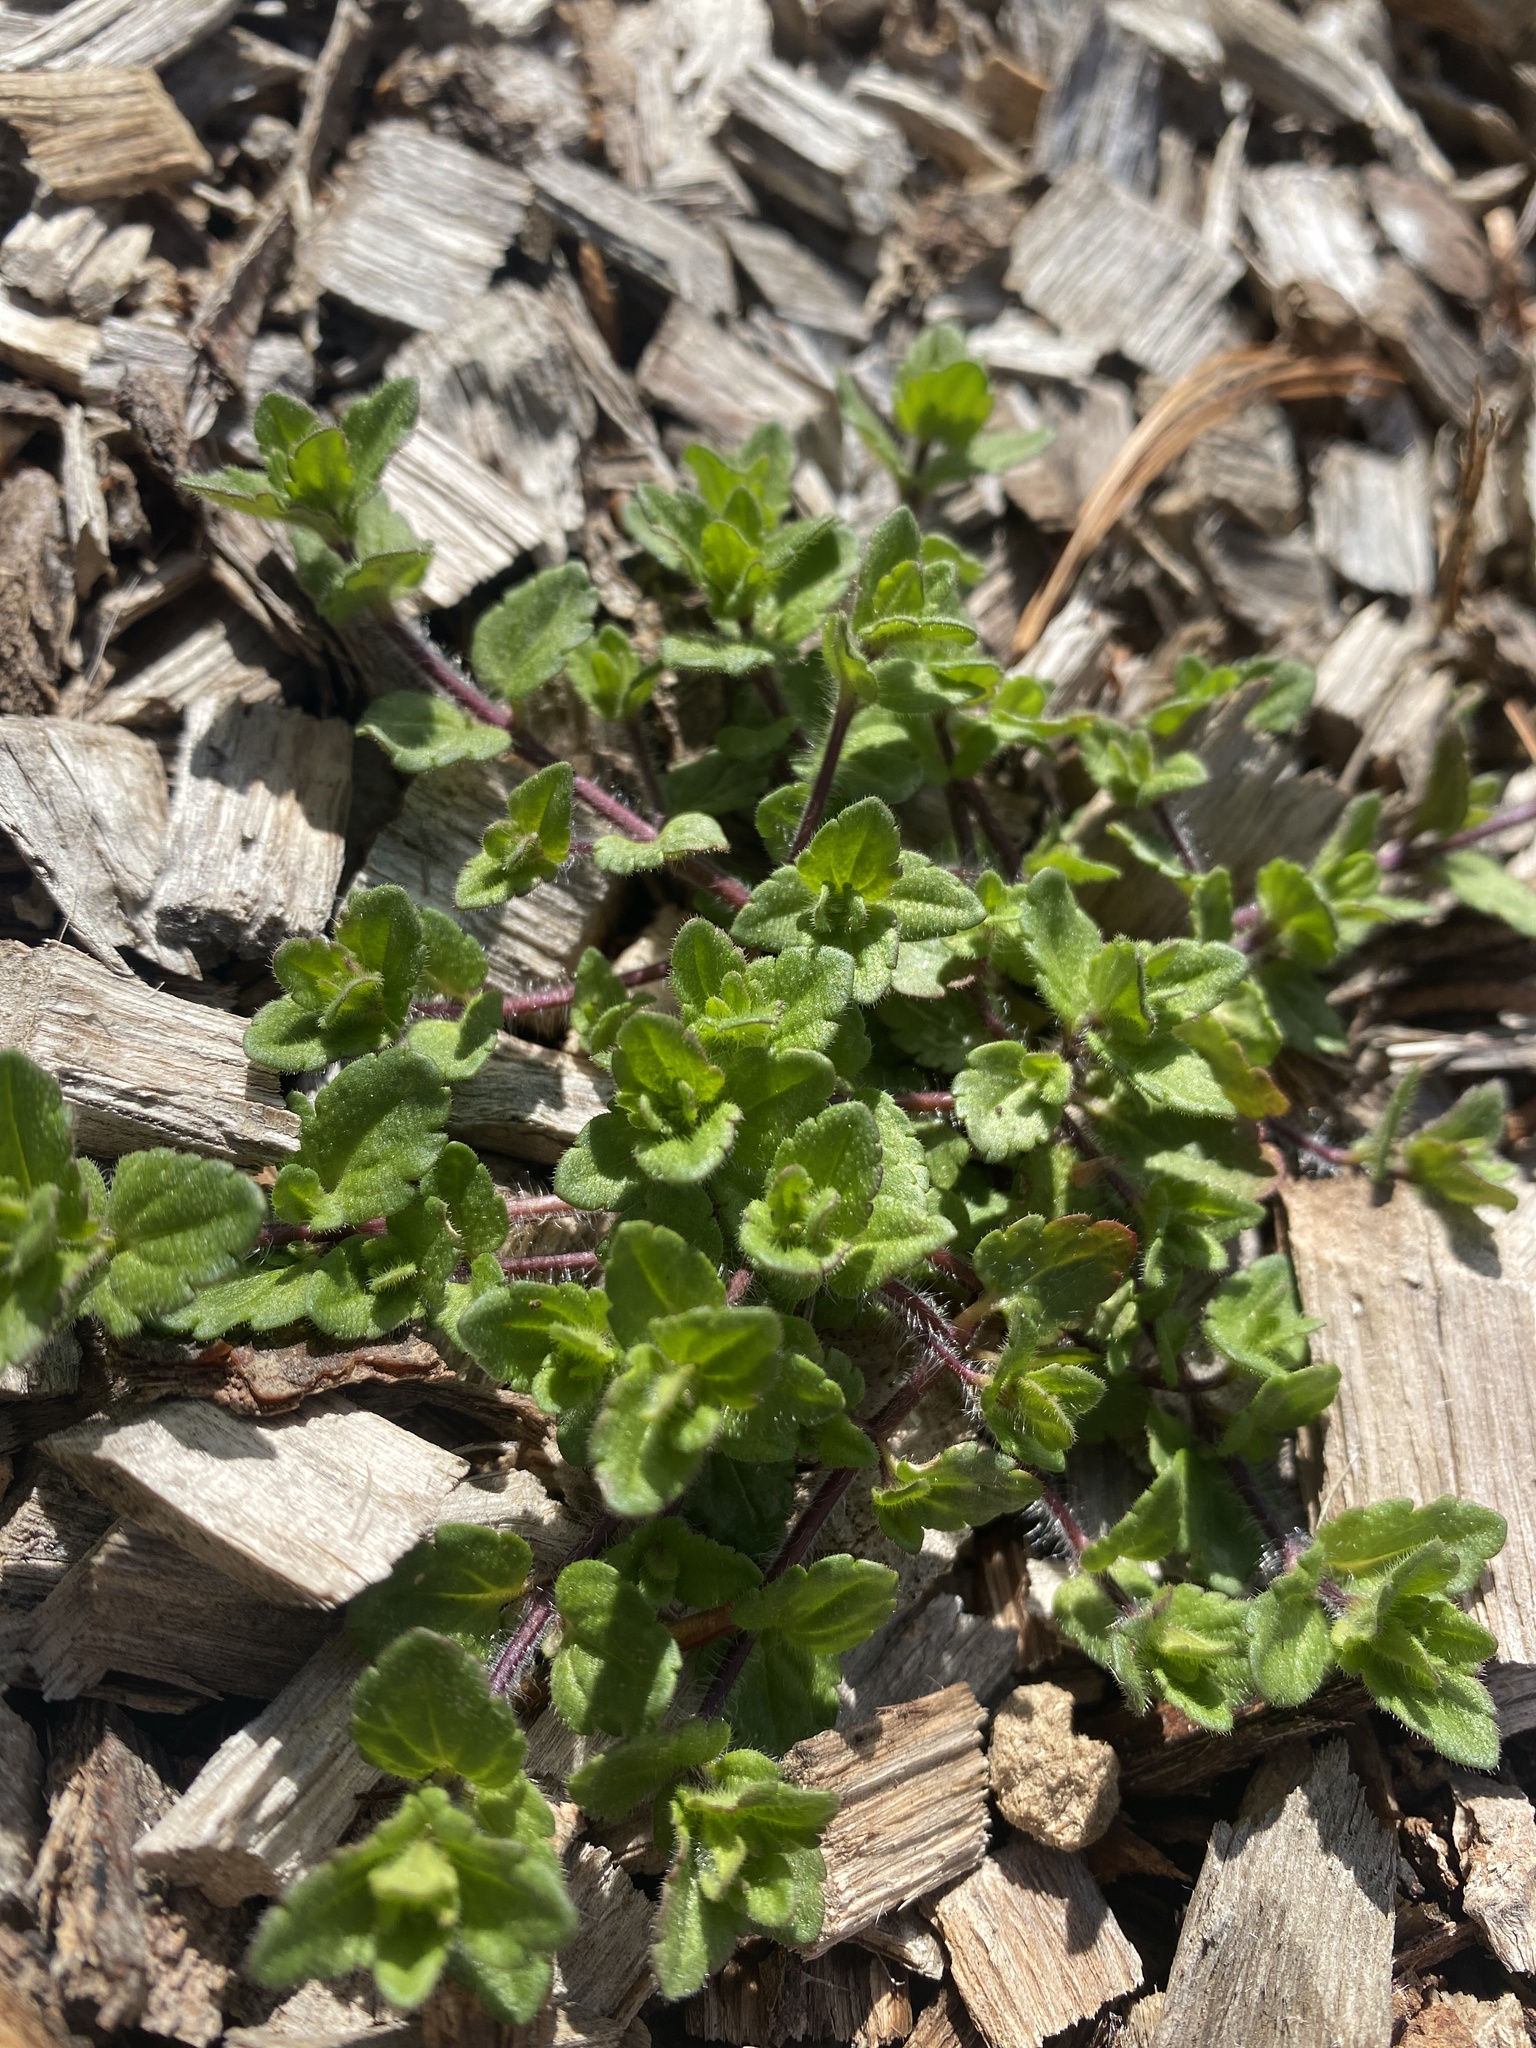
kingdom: Plantae
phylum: Tracheophyta
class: Magnoliopsida
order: Lamiales
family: Plantaginaceae
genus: Veronica
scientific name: Veronica arvensis
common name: Corn speedwell
